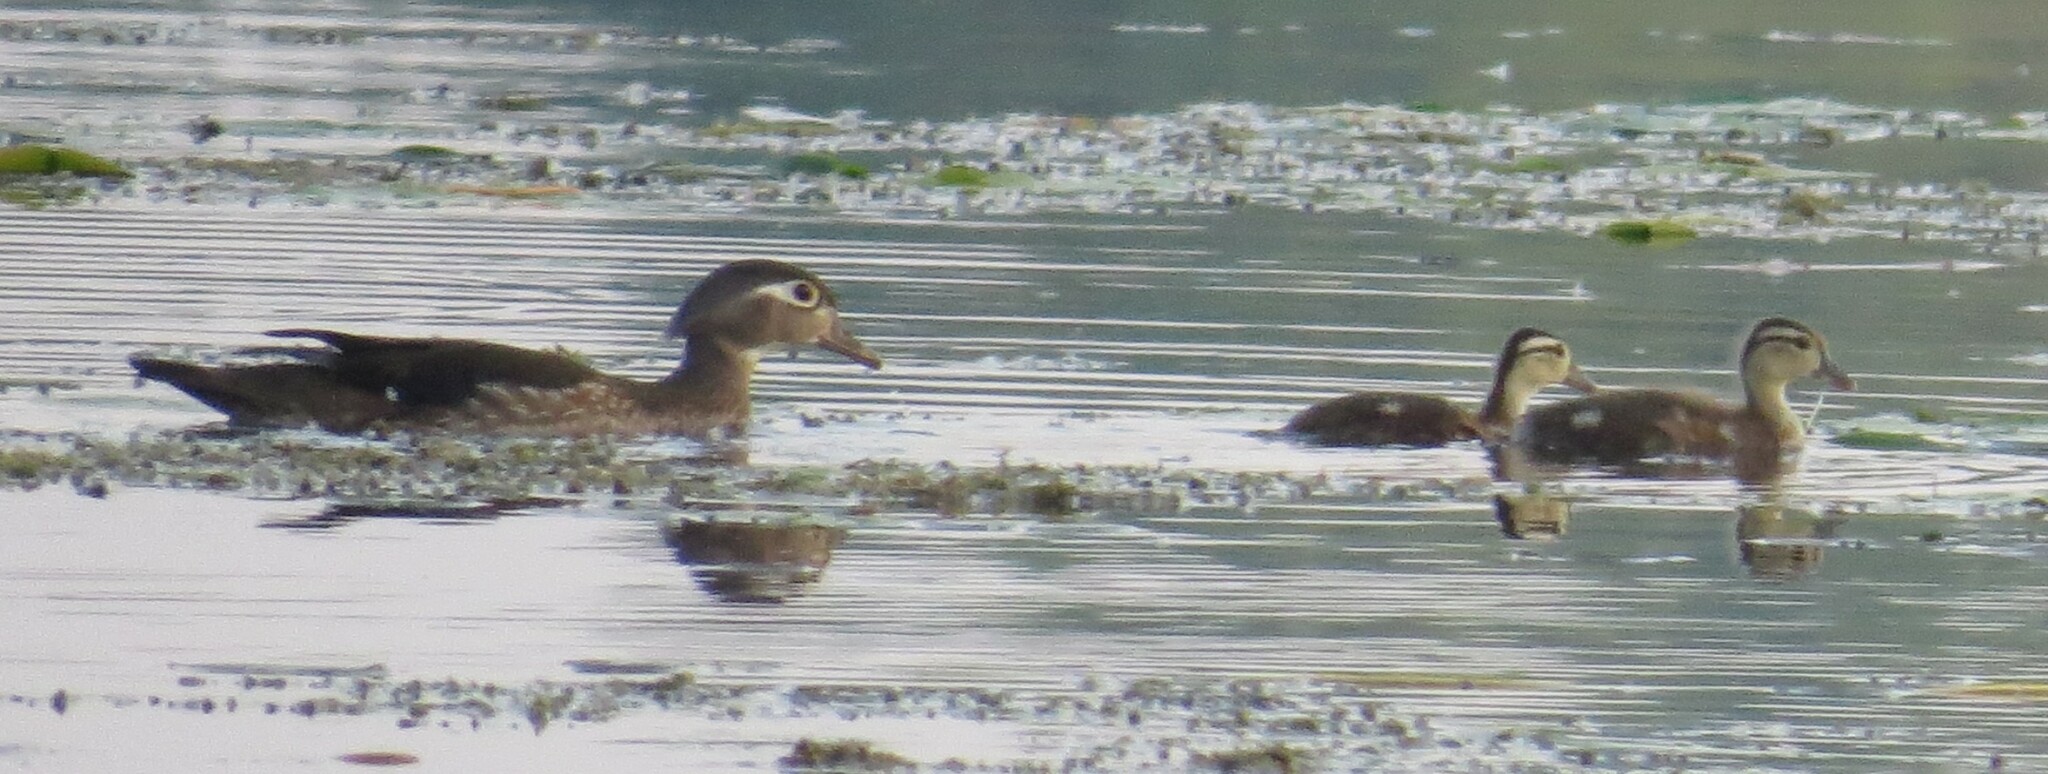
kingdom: Animalia
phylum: Chordata
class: Aves
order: Anseriformes
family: Anatidae
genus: Aix
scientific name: Aix sponsa
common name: Wood duck
